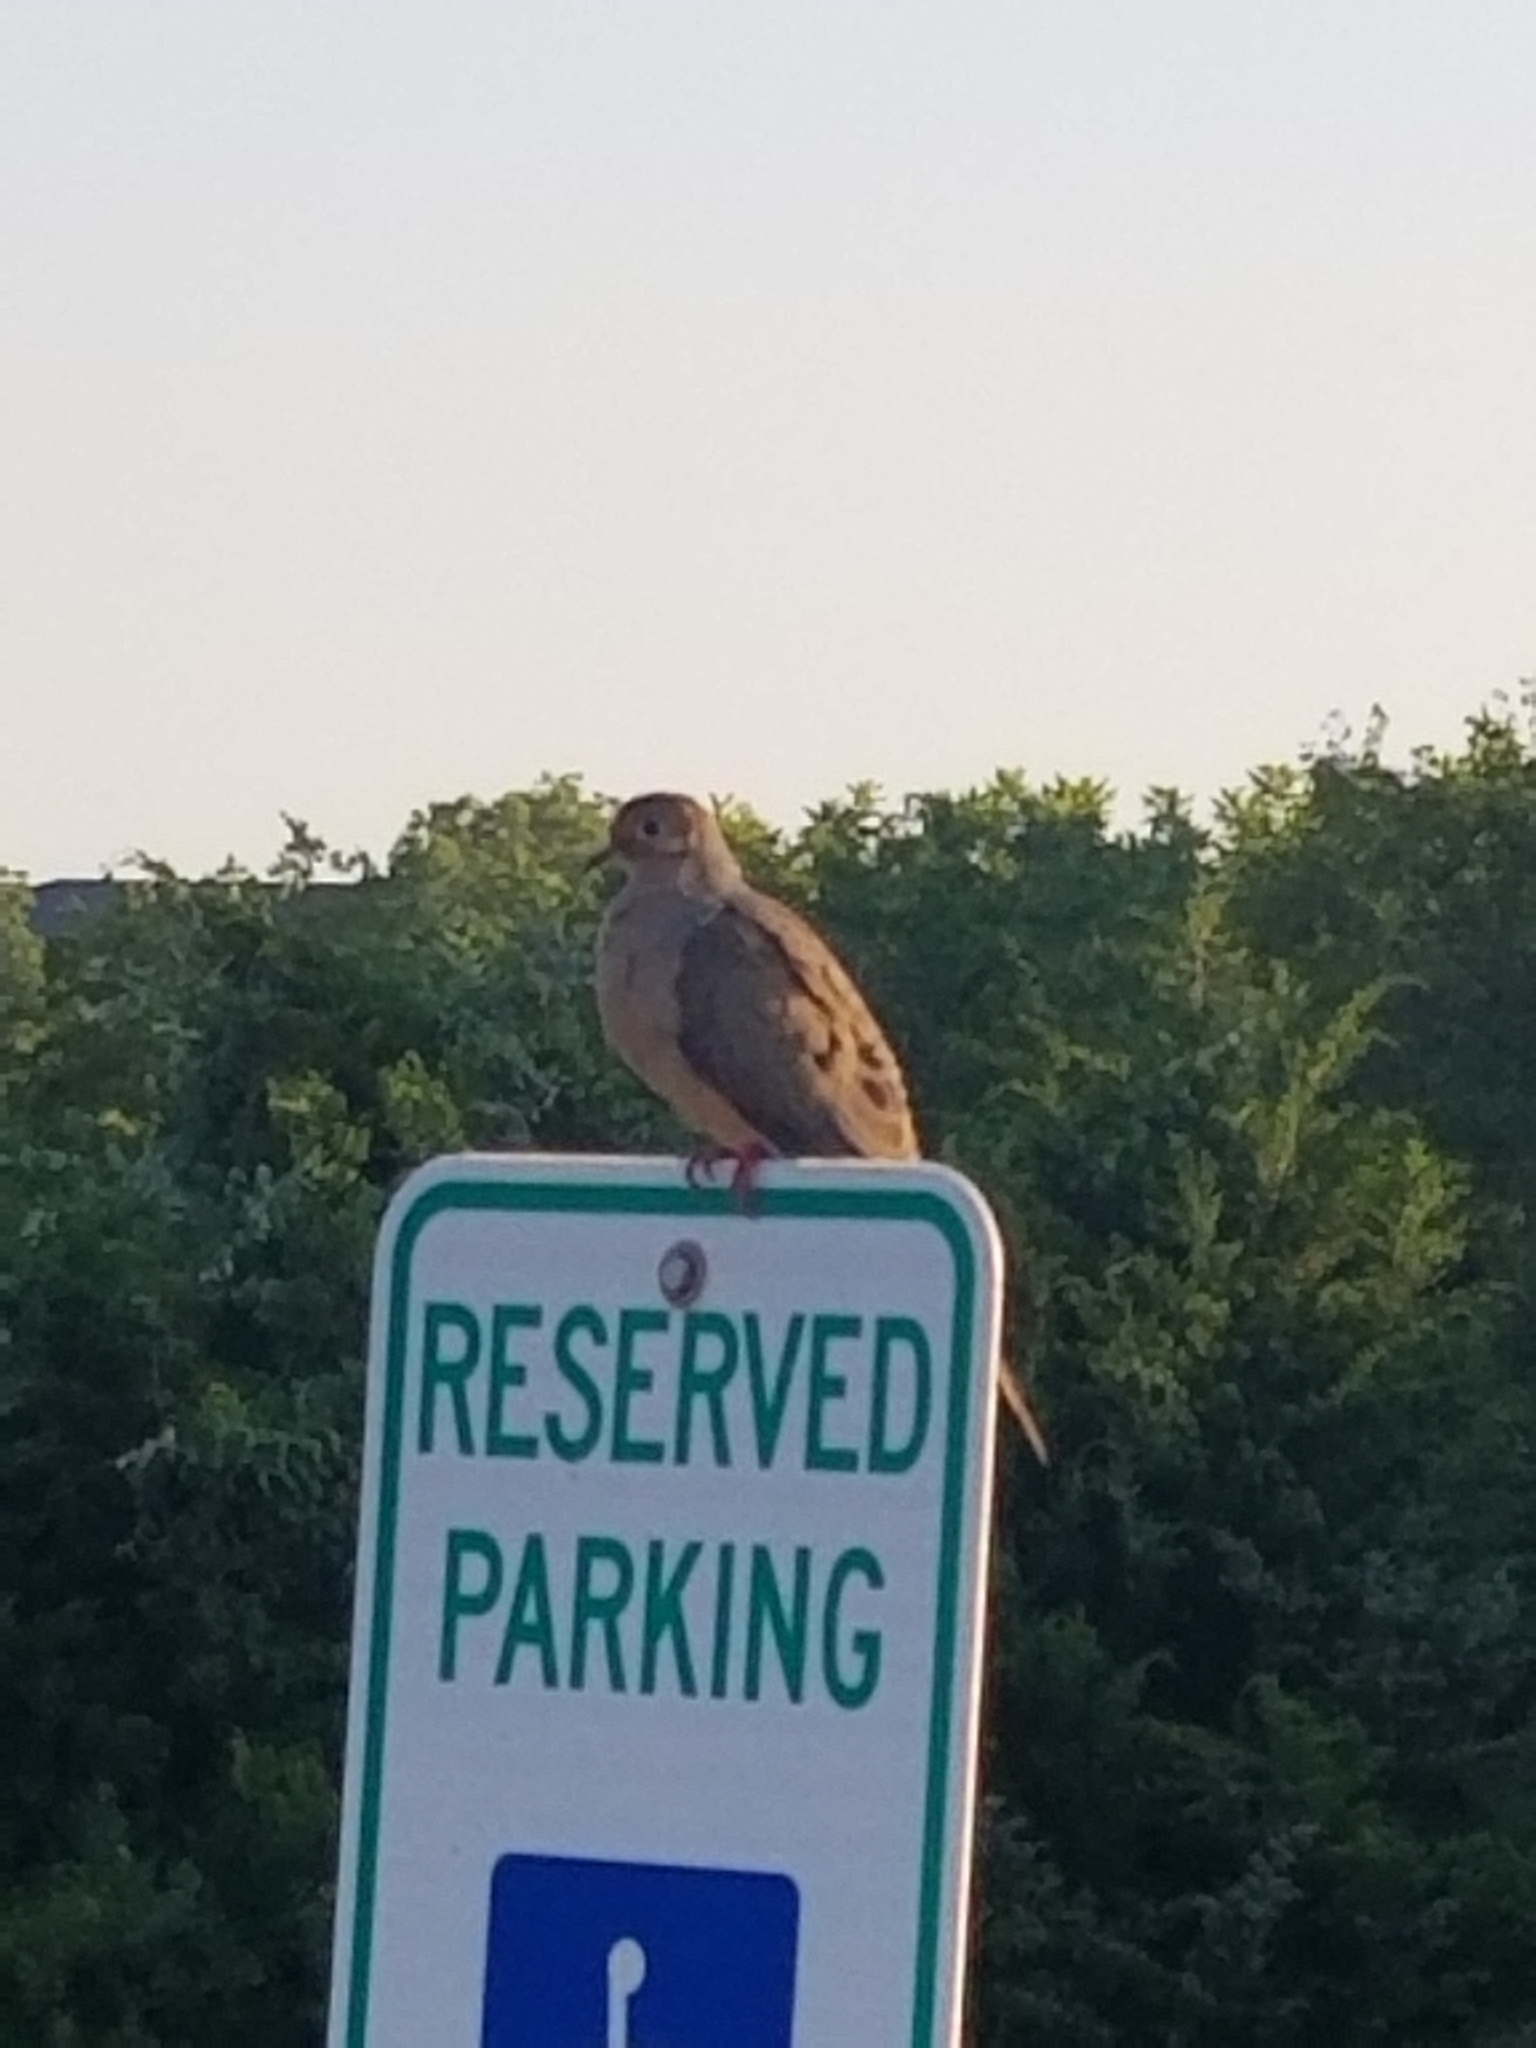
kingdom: Animalia
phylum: Chordata
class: Aves
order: Columbiformes
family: Columbidae
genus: Zenaida
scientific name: Zenaida macroura
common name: Mourning dove
